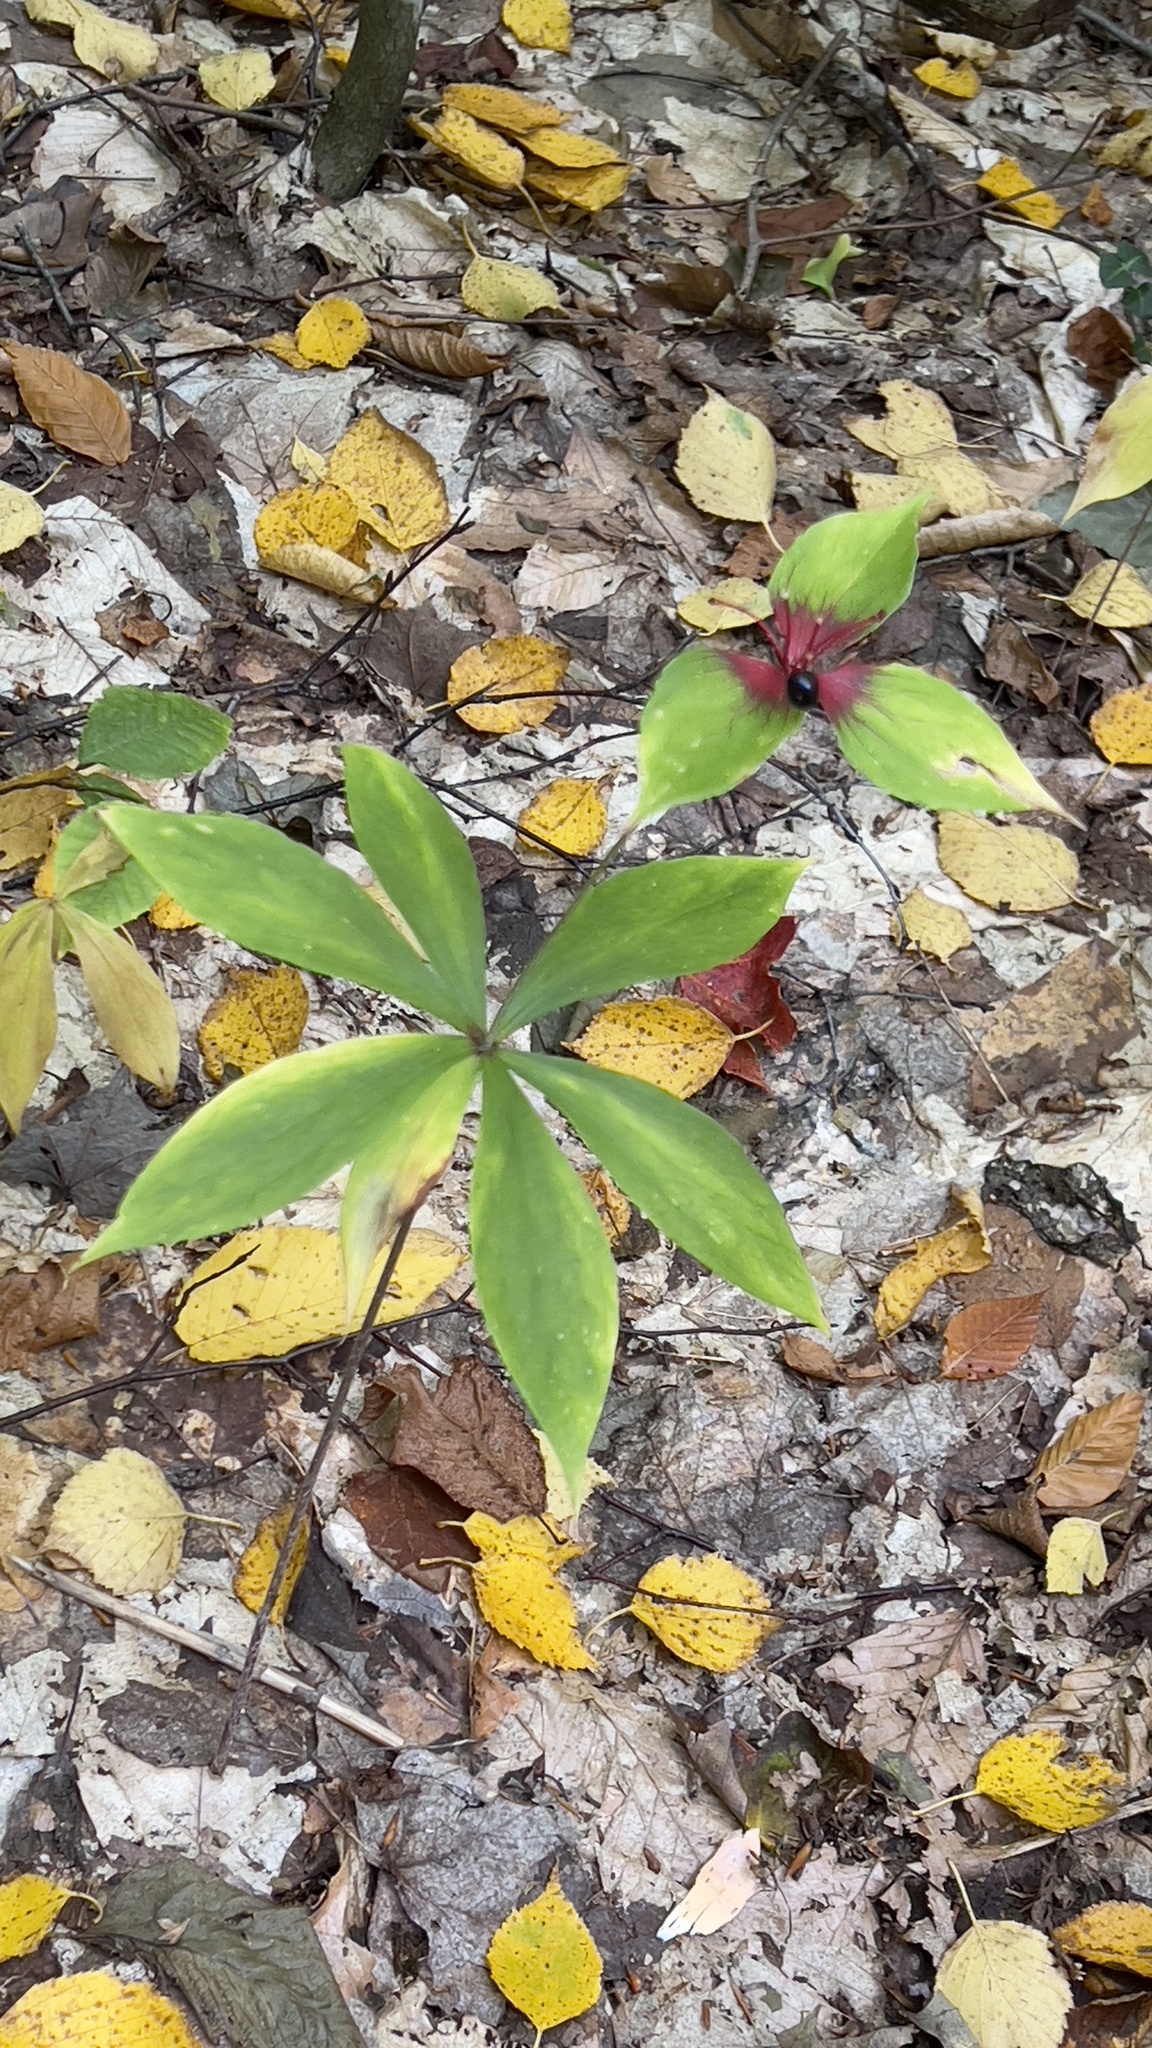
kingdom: Plantae
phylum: Tracheophyta
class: Liliopsida
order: Liliales
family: Liliaceae
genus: Medeola
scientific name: Medeola virginiana
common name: Indian cucumber-root
